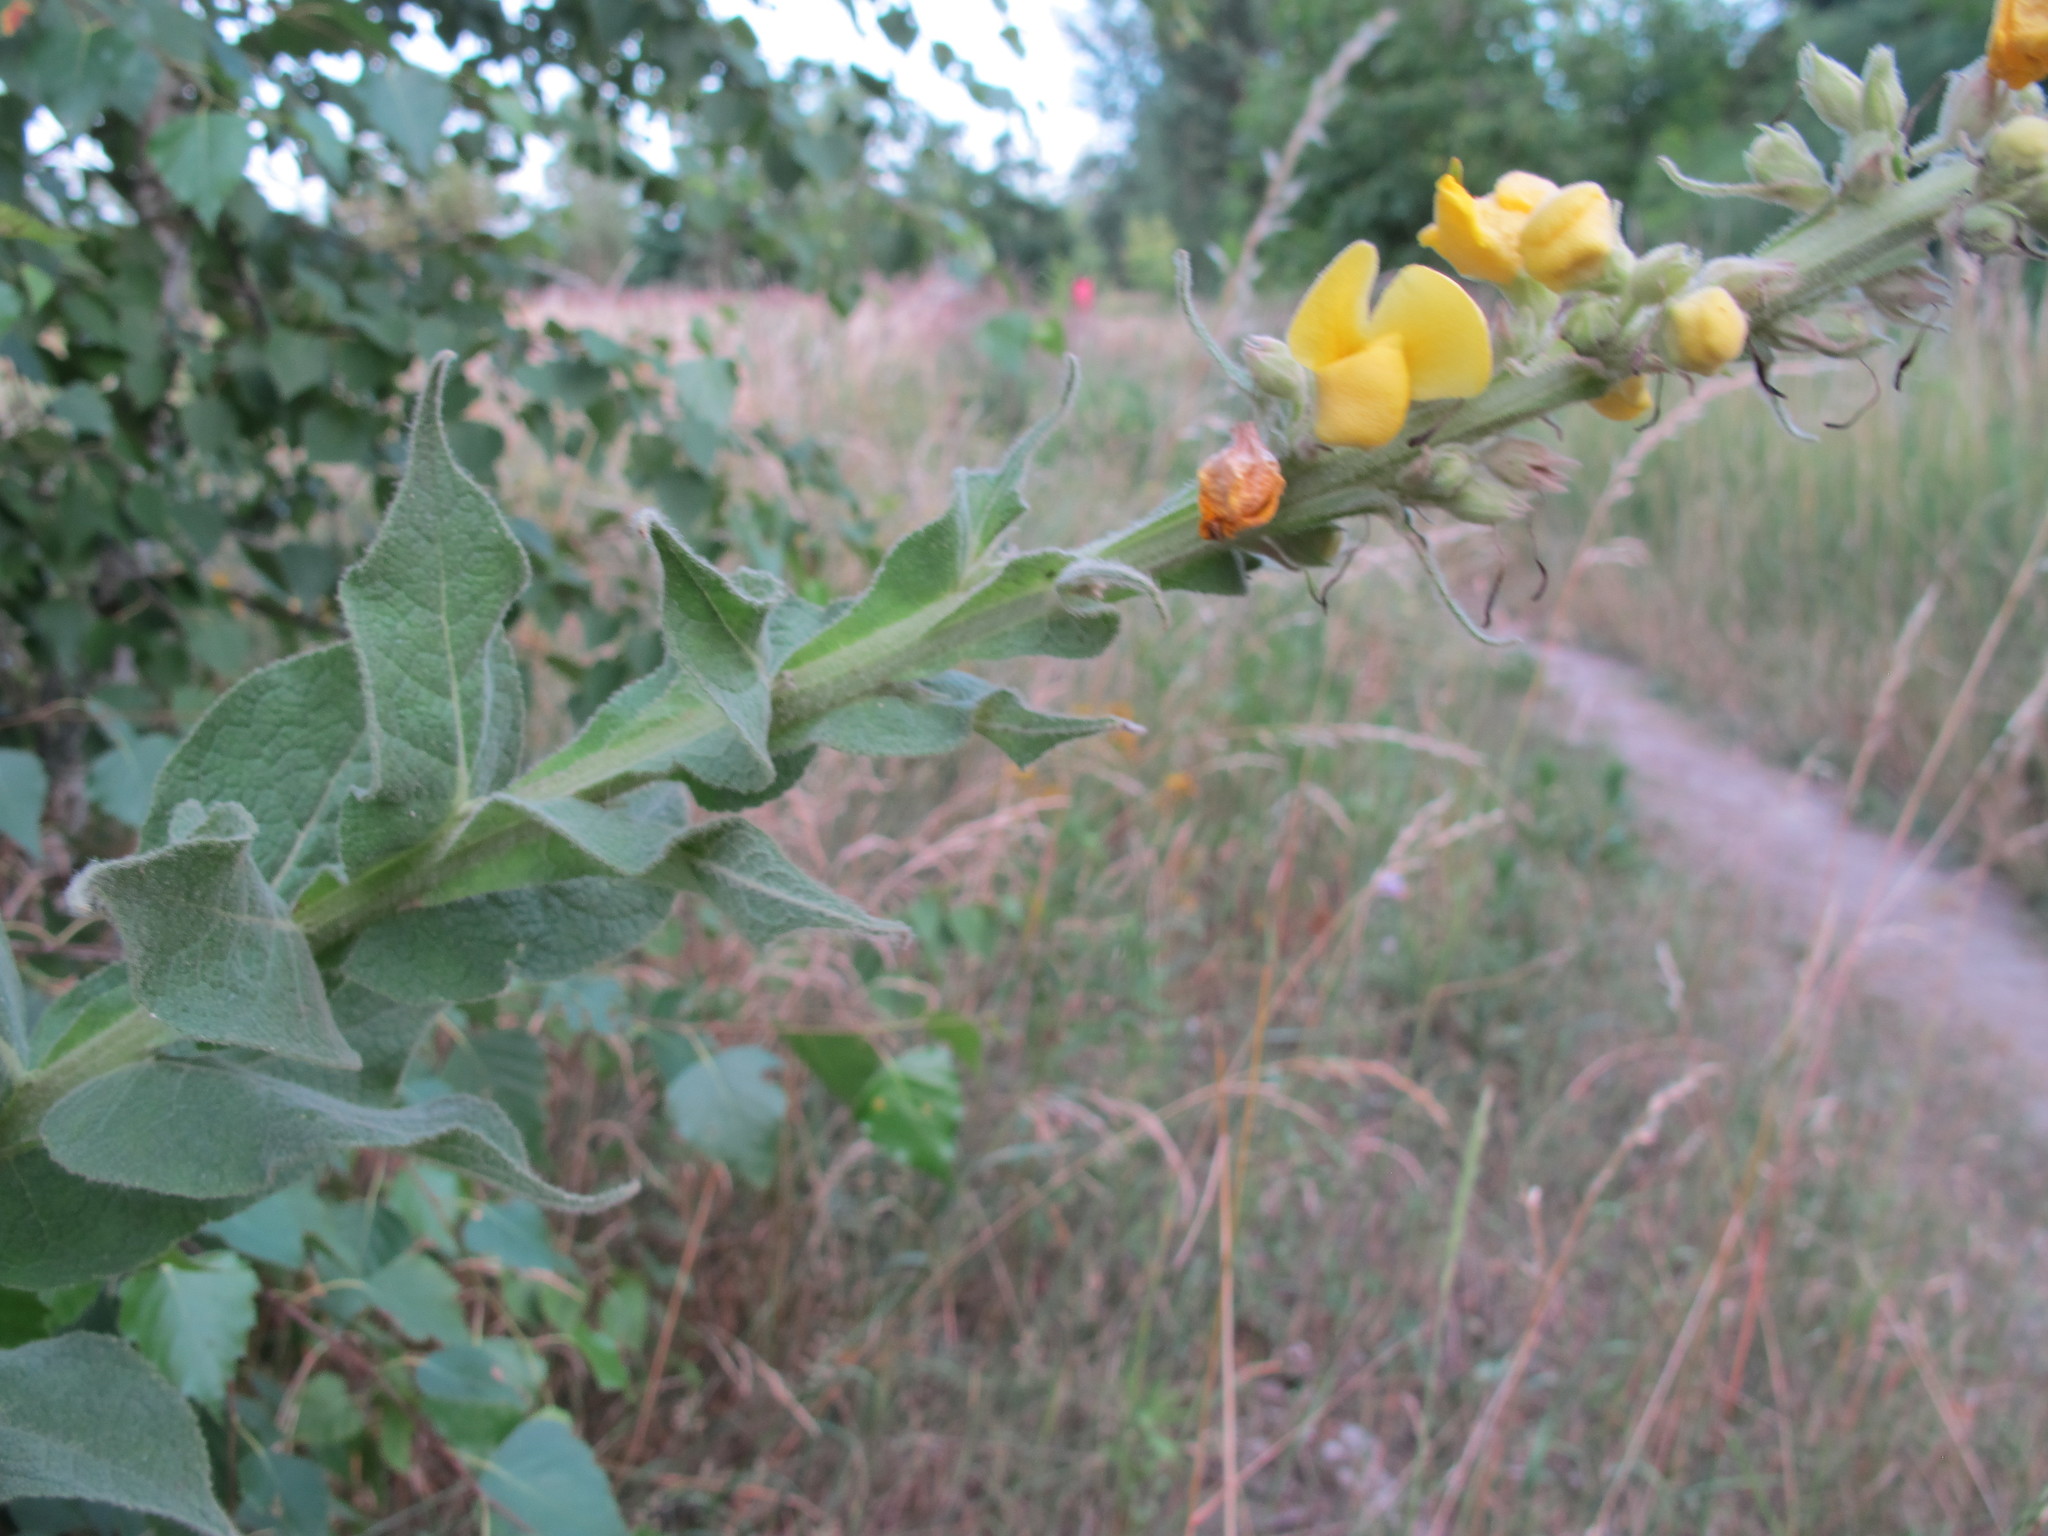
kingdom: Plantae
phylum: Tracheophyta
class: Magnoliopsida
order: Lamiales
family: Scrophulariaceae
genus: Verbascum
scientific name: Verbascum thapsus
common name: Common mullein
